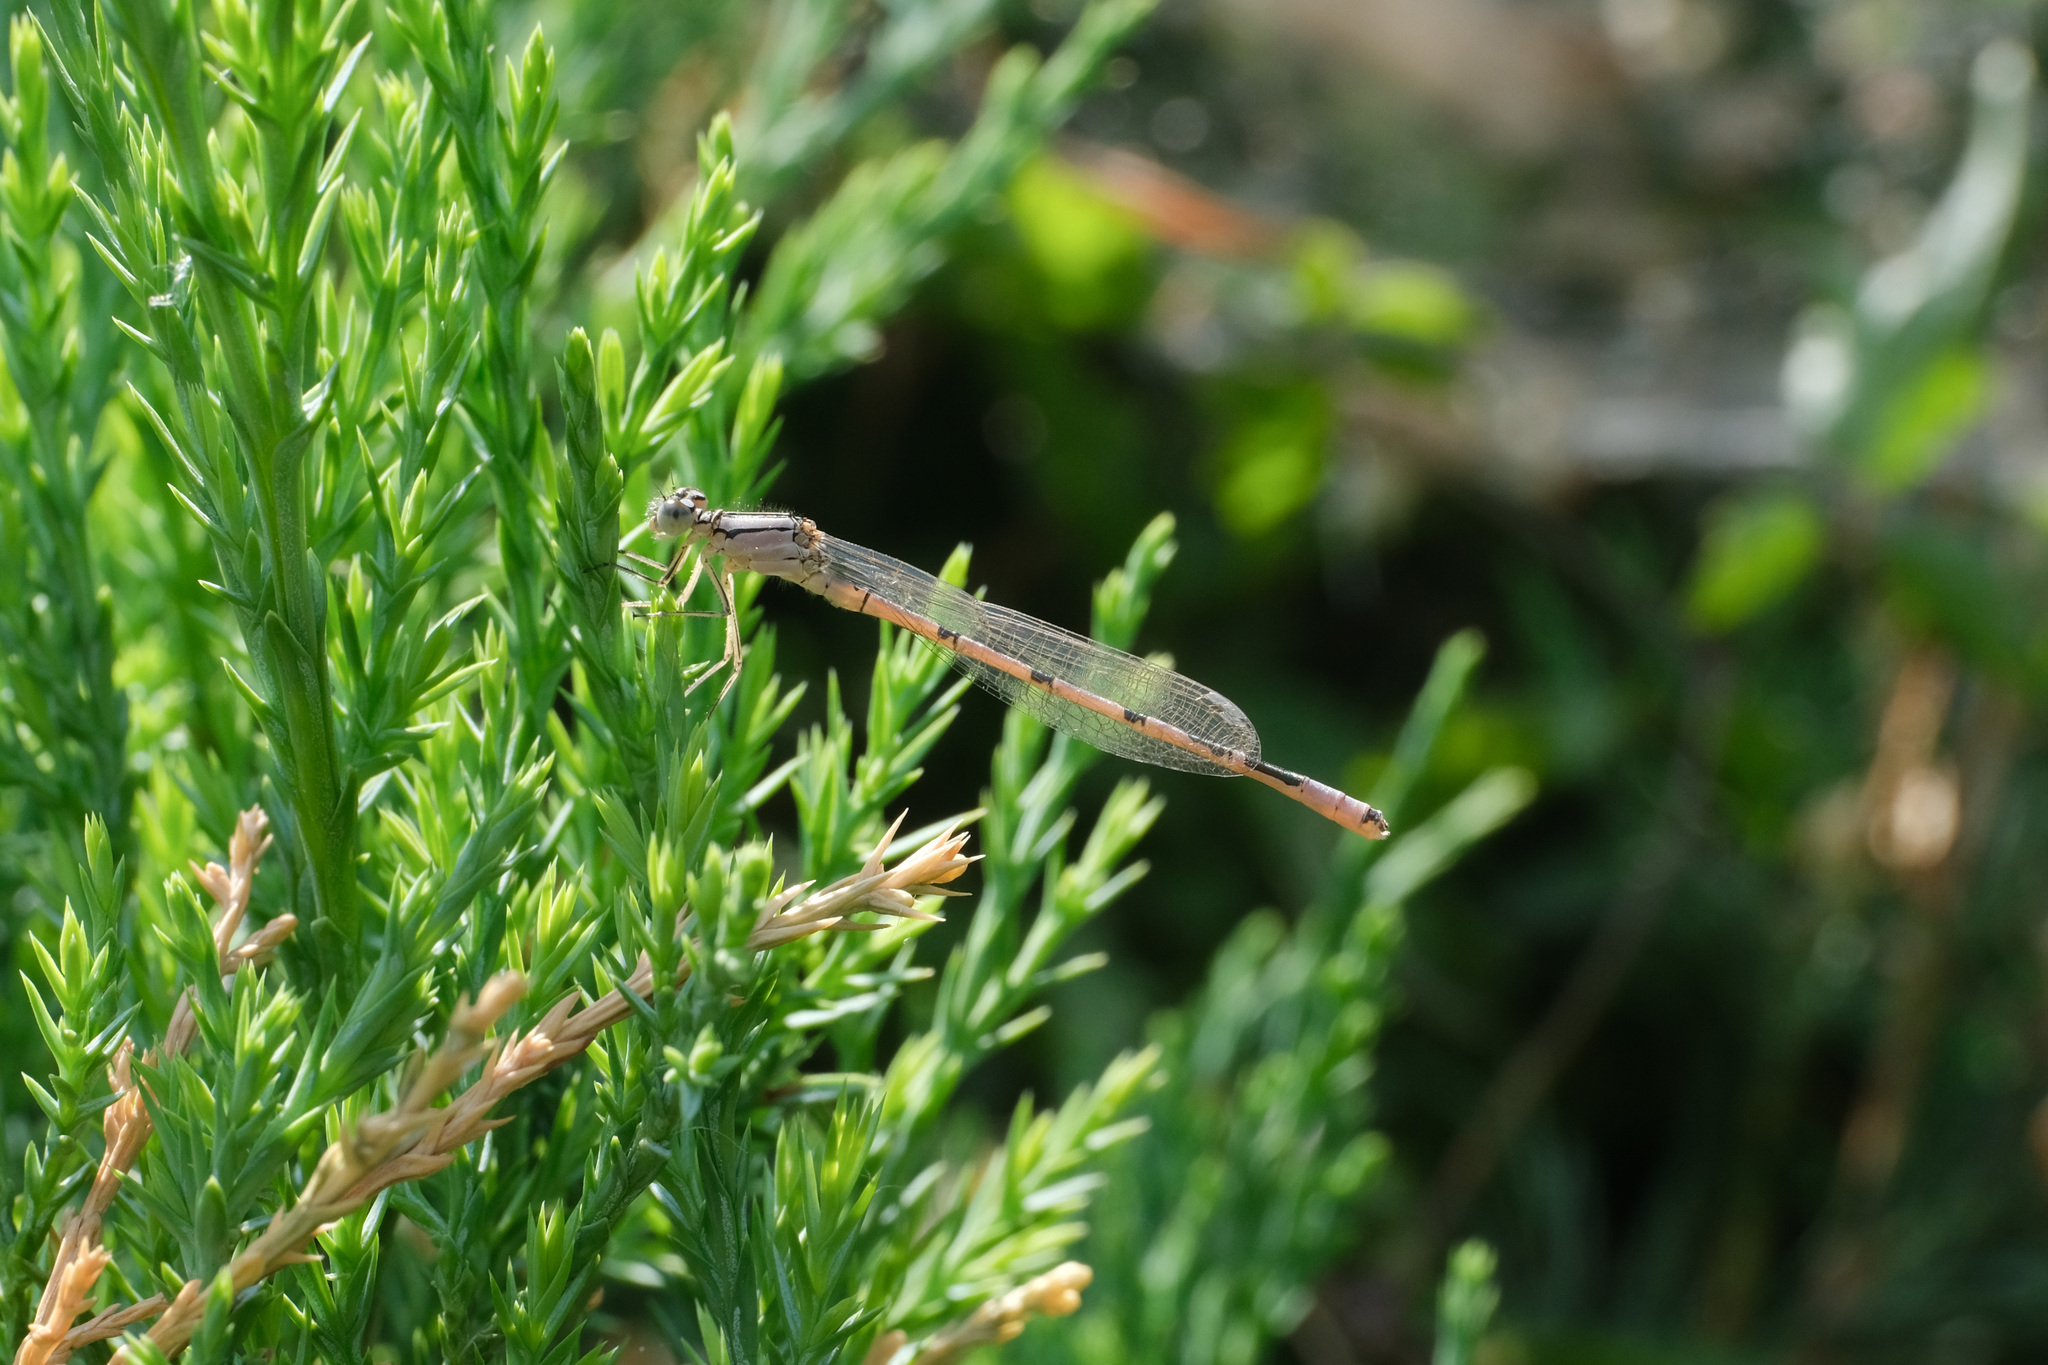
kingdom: Animalia
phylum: Arthropoda
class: Insecta
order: Odonata
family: Coenagrionidae
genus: Enallagma
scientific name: Enallagma cyathigerum
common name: Common blue damselfly
